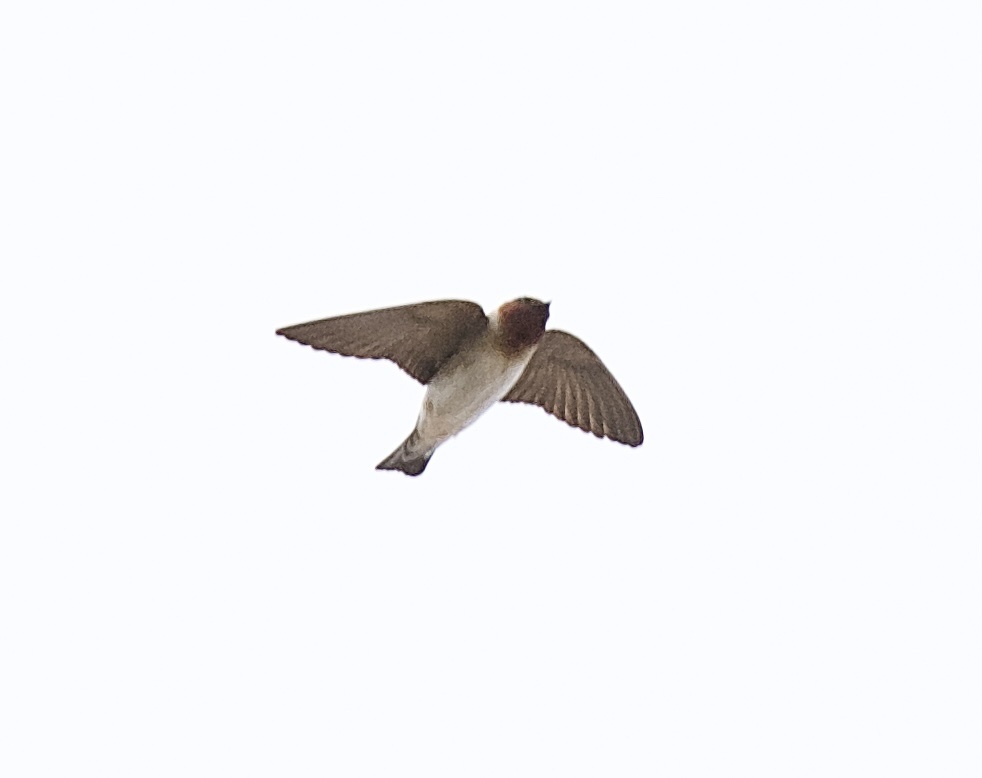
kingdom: Animalia
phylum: Chordata
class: Aves
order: Passeriformes
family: Hirundinidae
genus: Petrochelidon
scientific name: Petrochelidon pyrrhonota
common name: American cliff swallow
